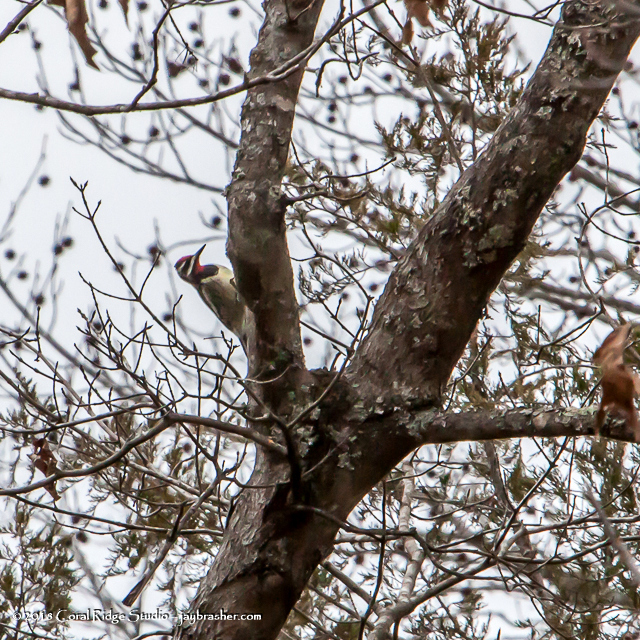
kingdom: Animalia
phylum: Chordata
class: Aves
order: Piciformes
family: Picidae
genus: Sphyrapicus
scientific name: Sphyrapicus varius
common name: Yellow-bellied sapsucker
